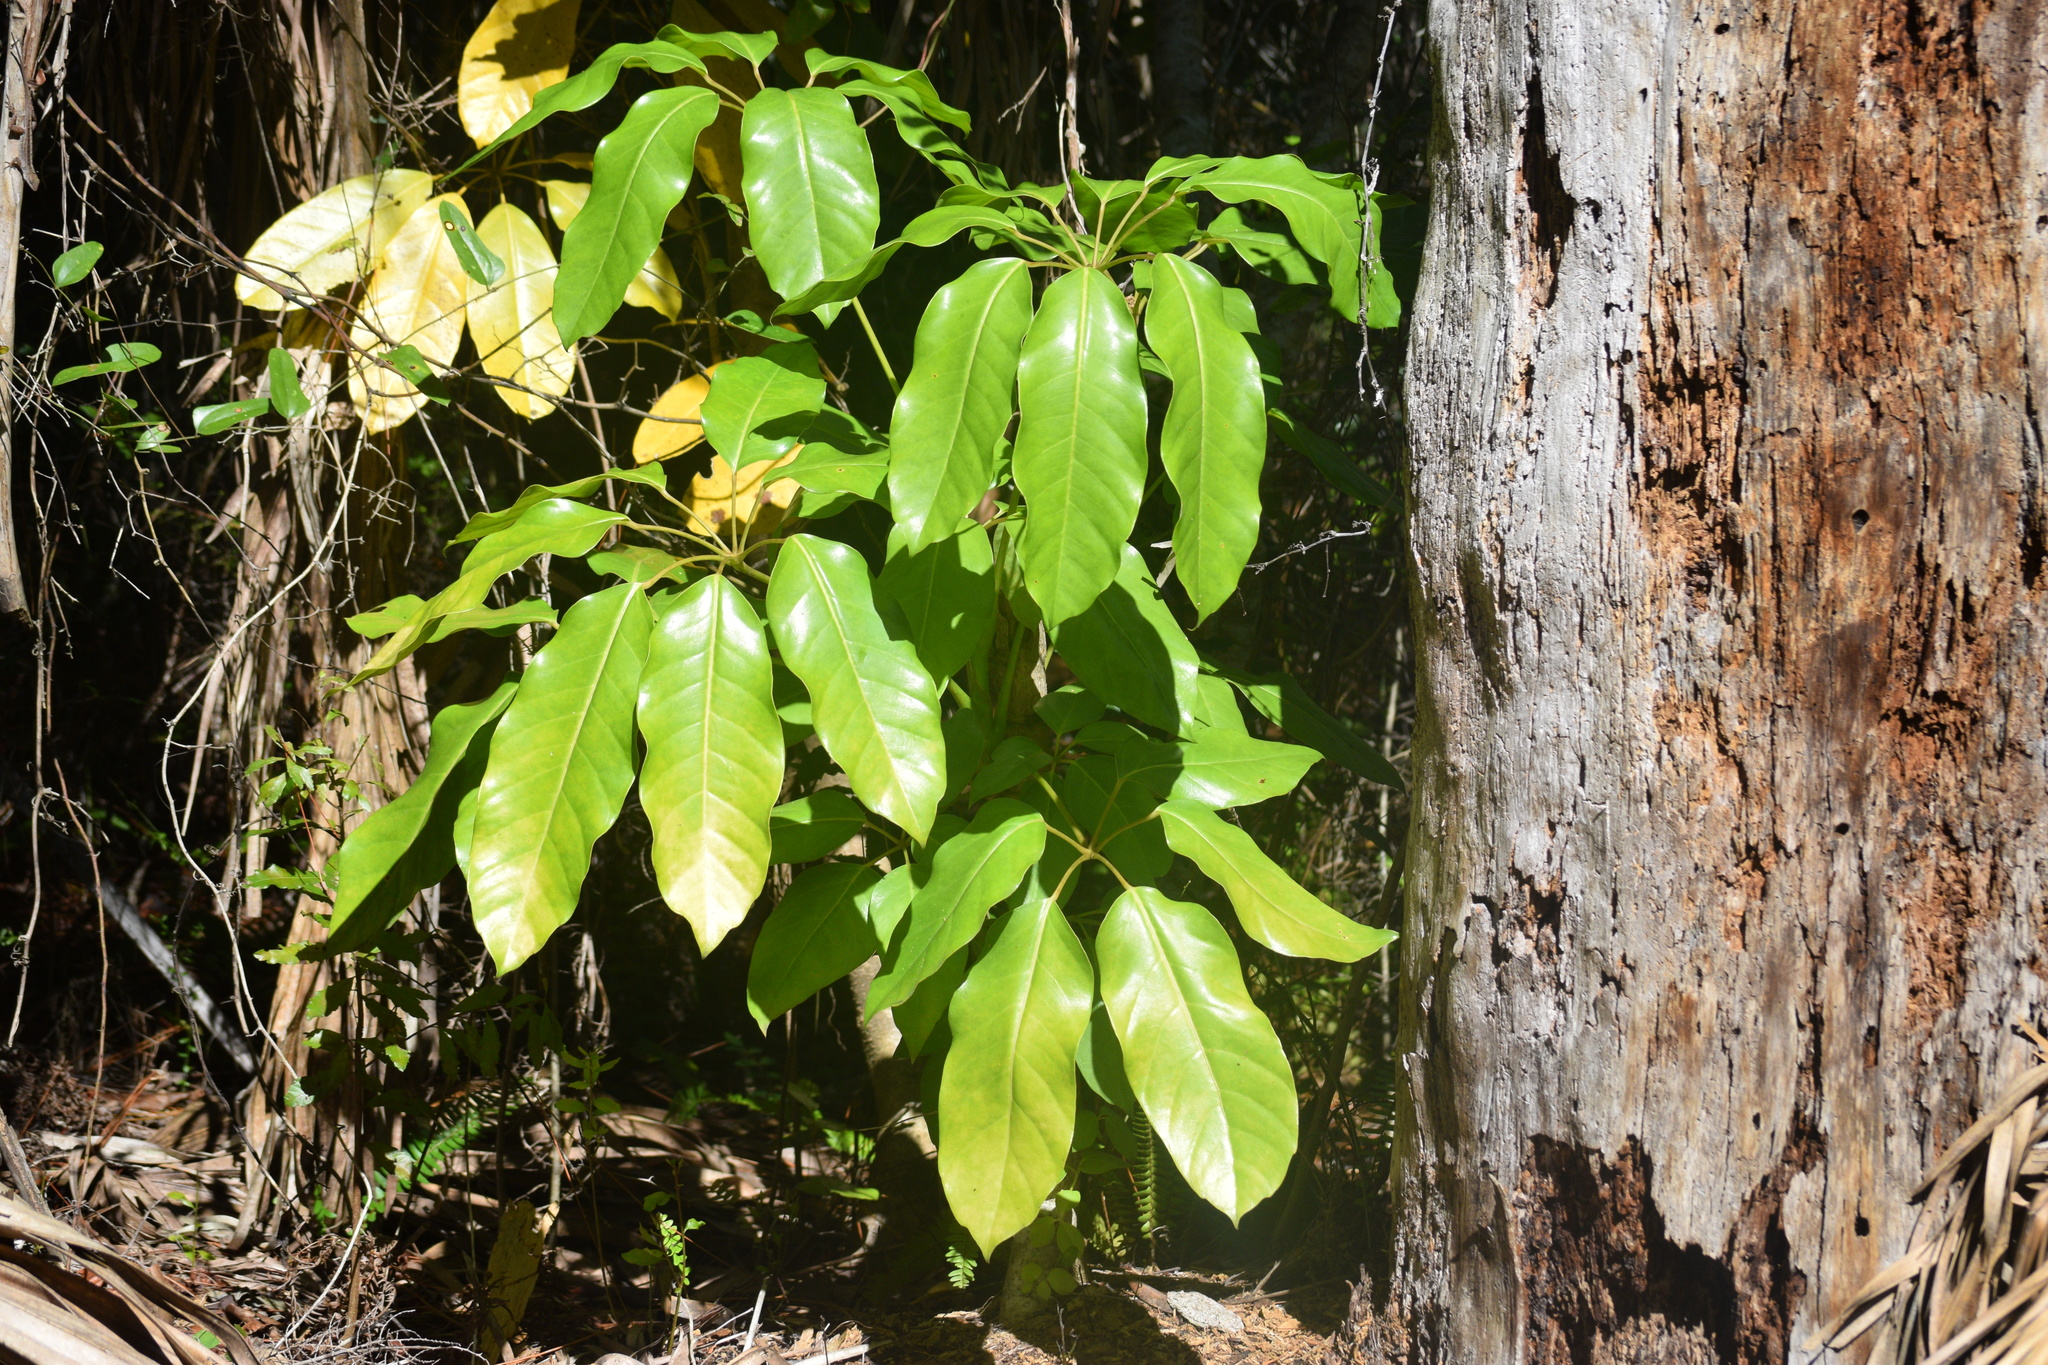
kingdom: Plantae
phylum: Tracheophyta
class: Magnoliopsida
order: Apiales
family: Araliaceae
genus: Heptapleurum
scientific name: Heptapleurum actinophyllum
